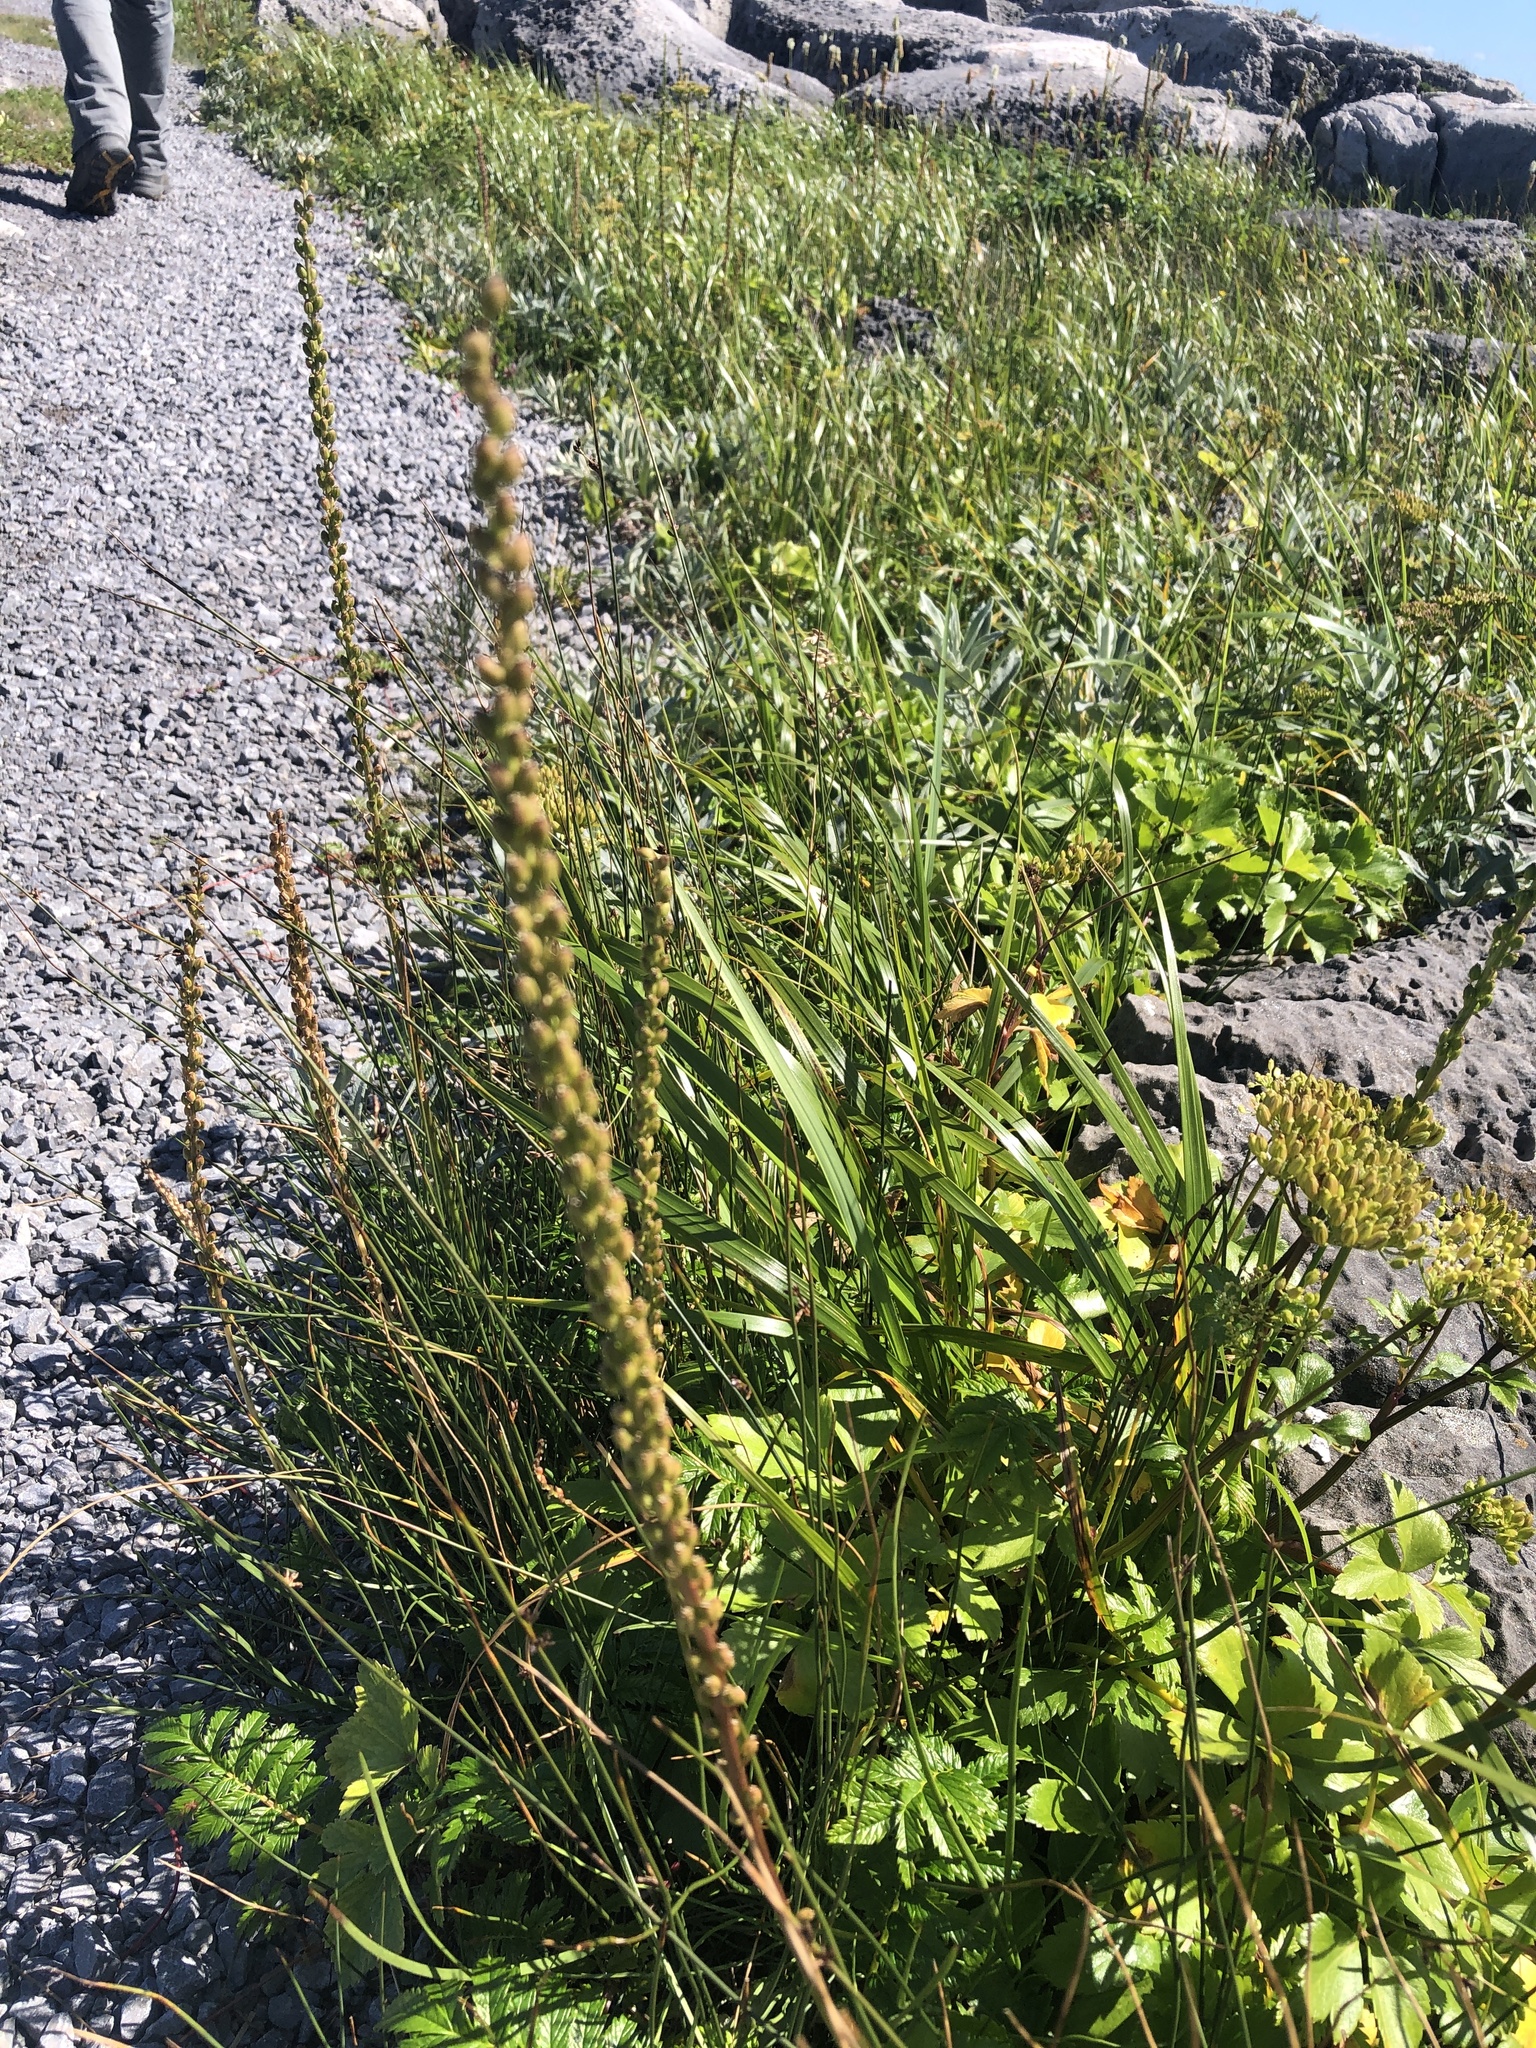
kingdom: Plantae
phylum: Tracheophyta
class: Liliopsida
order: Alismatales
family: Juncaginaceae
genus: Triglochin
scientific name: Triglochin maritima
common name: Sea arrowgrass
